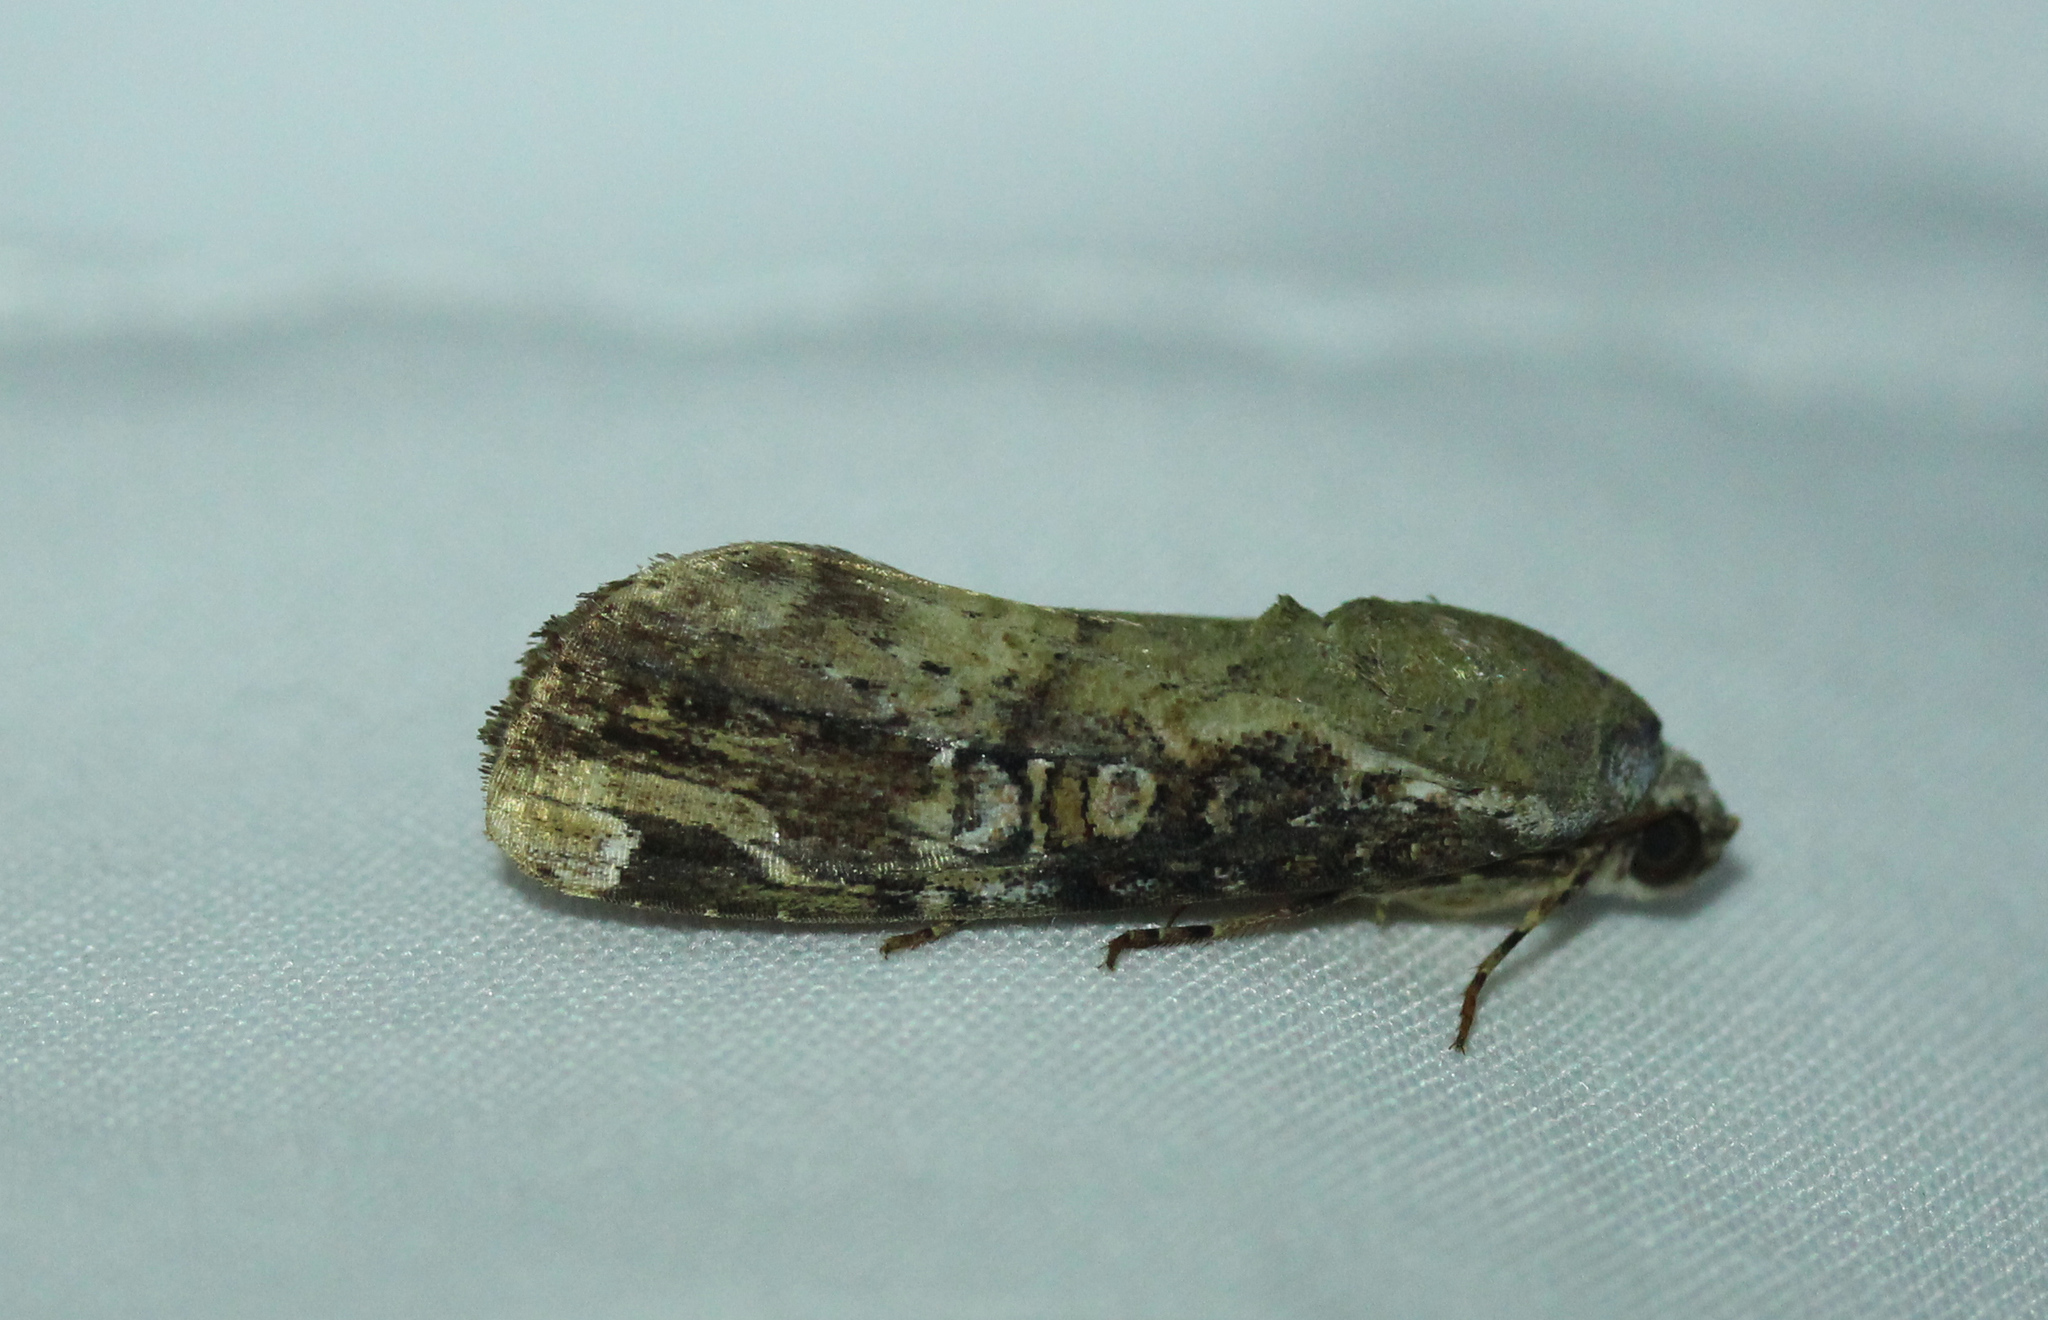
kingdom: Animalia
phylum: Arthropoda
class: Insecta
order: Lepidoptera
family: Noctuidae
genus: Magusa
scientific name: Magusa divaricata
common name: Orb narrow-winged moth
